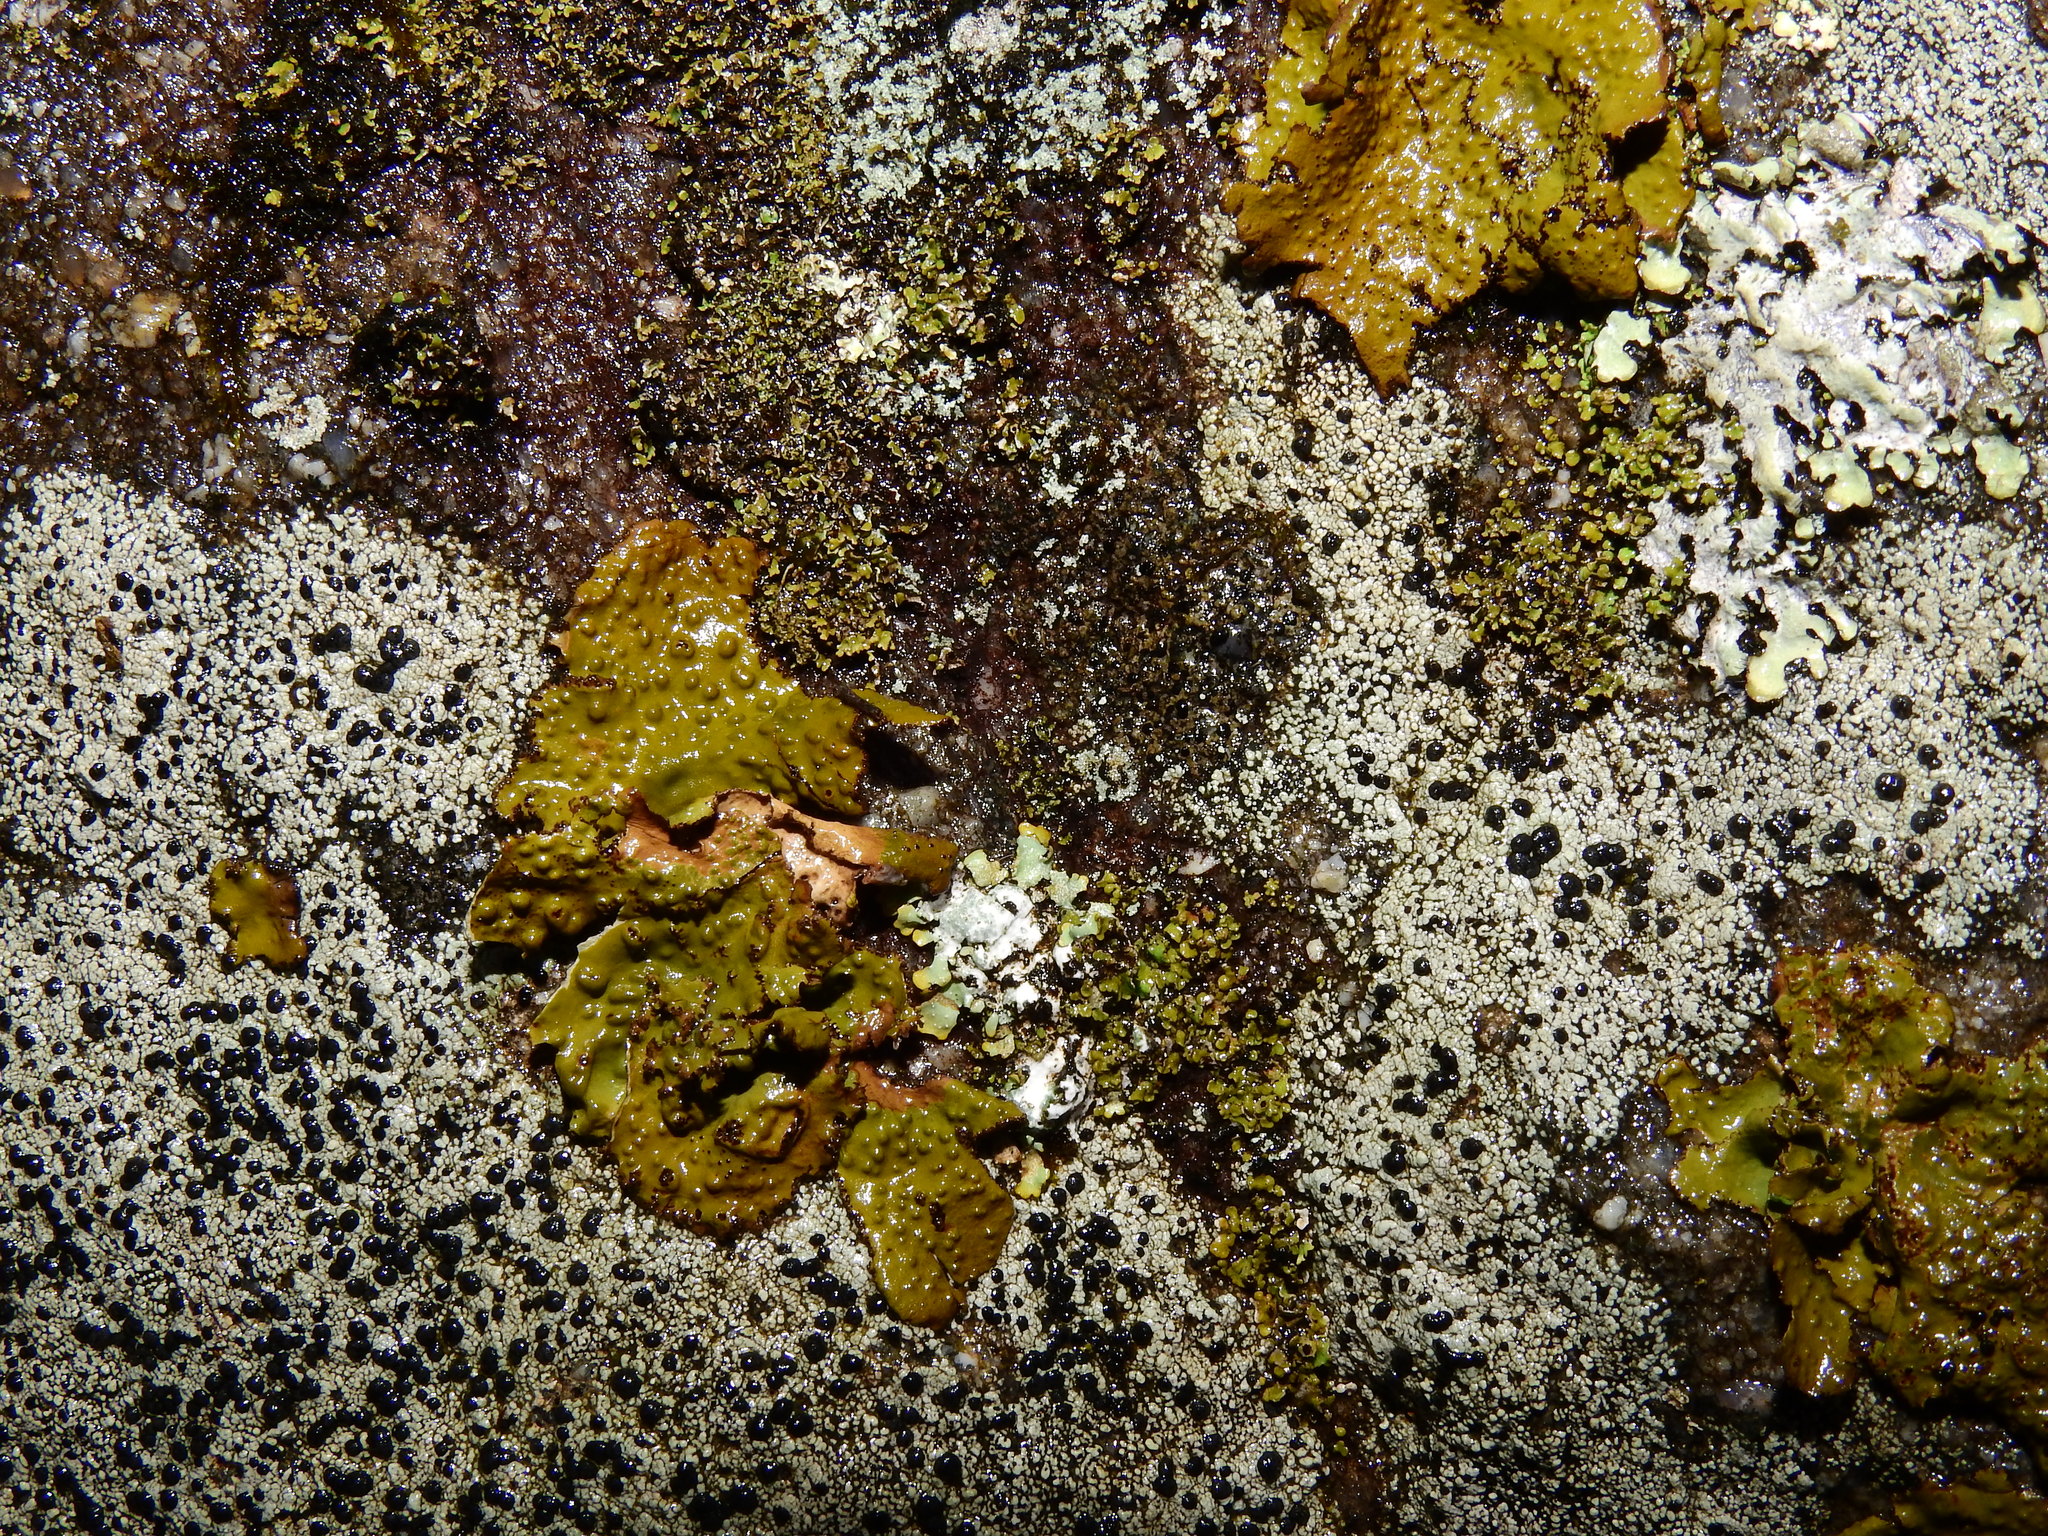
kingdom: Fungi
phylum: Ascomycota
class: Lecanoromycetes
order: Umbilicariales
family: Umbilicariaceae
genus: Lasallia
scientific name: Lasallia pensylvanica
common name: Blackened toadskin lichen
